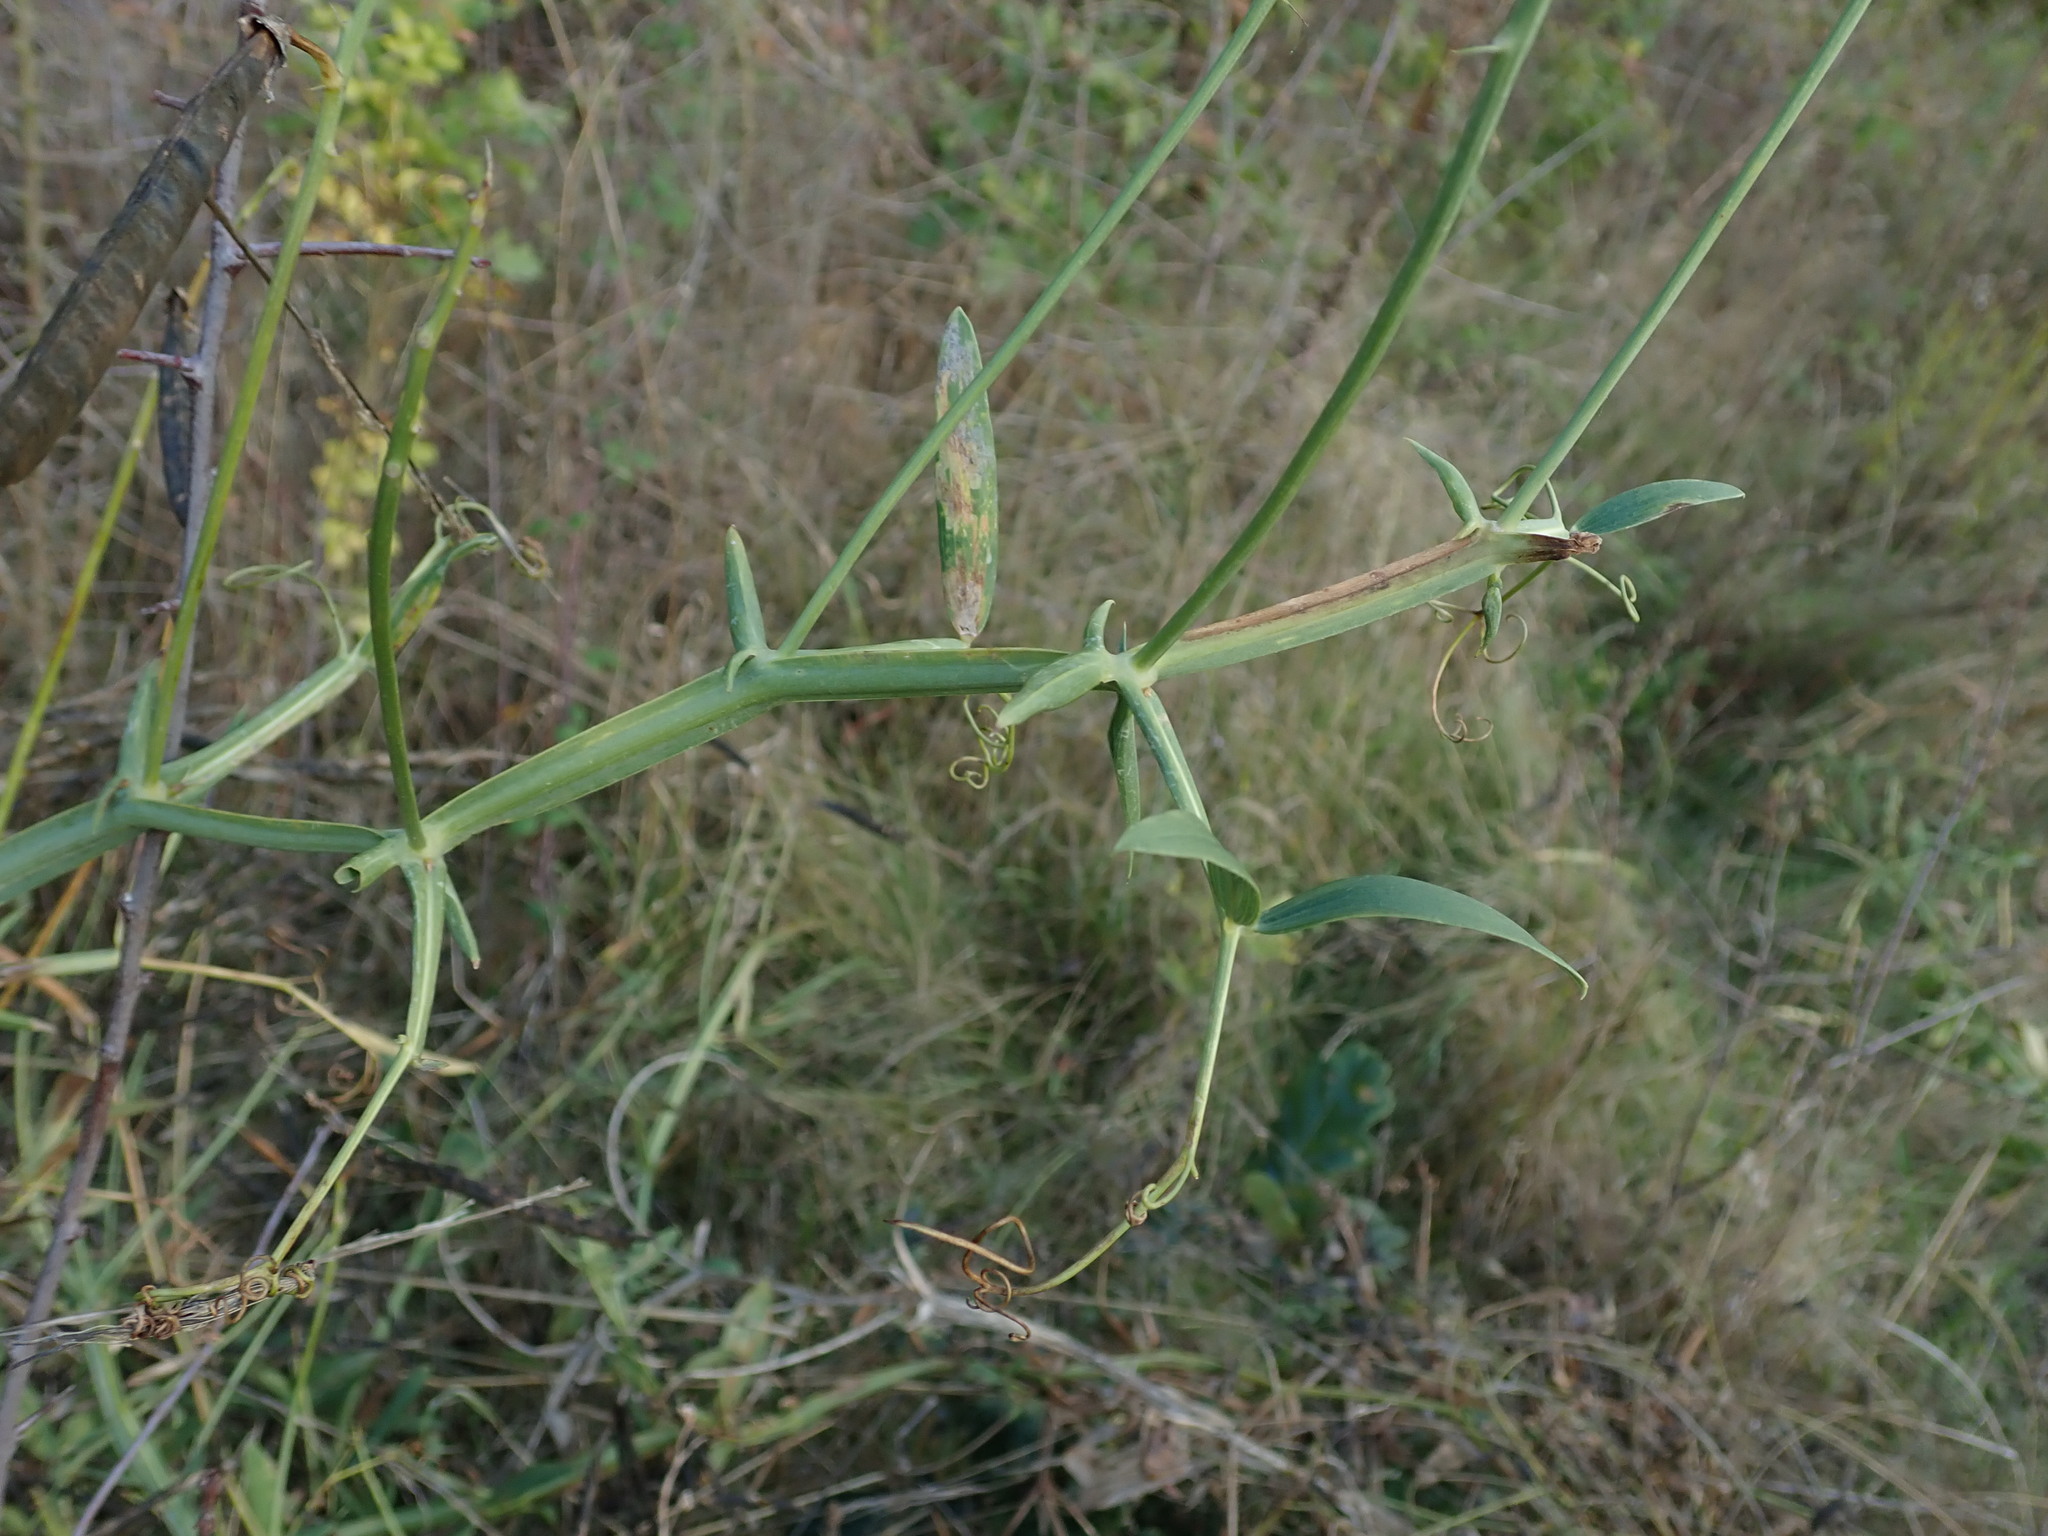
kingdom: Plantae
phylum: Tracheophyta
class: Magnoliopsida
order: Fabales
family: Fabaceae
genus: Lathyrus
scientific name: Lathyrus latifolius
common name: Perennial pea
